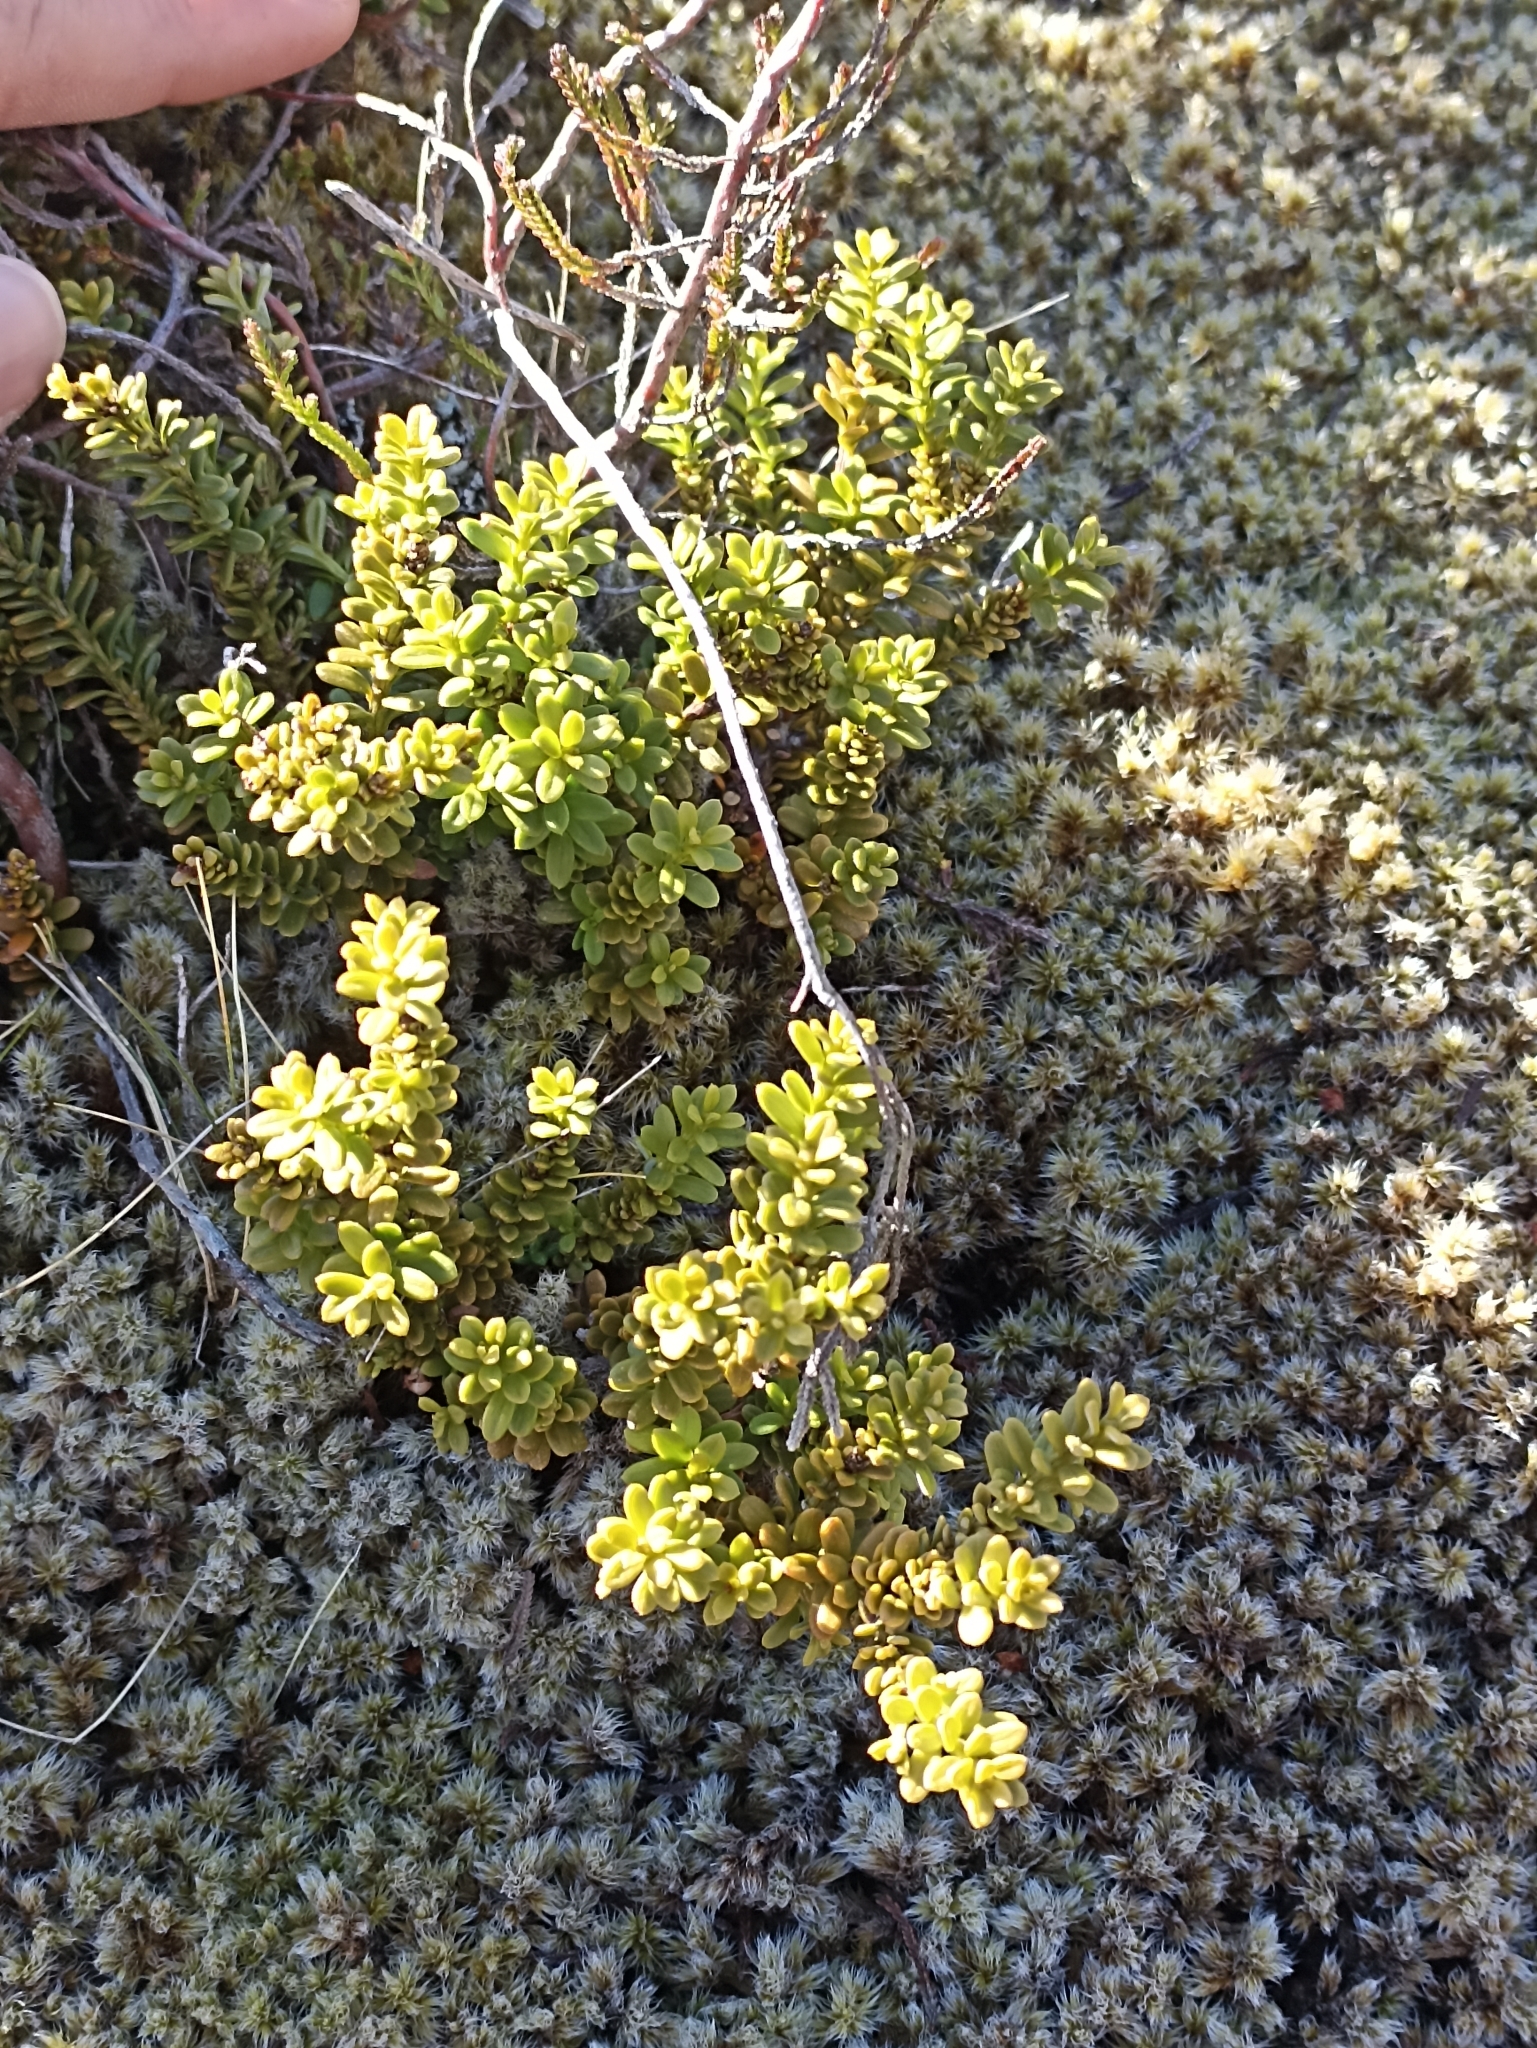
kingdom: Plantae
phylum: Tracheophyta
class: Magnoliopsida
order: Asterales
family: Asteraceae
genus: Olearia
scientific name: Olearia nummularifolia
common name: Sticky daisybush
